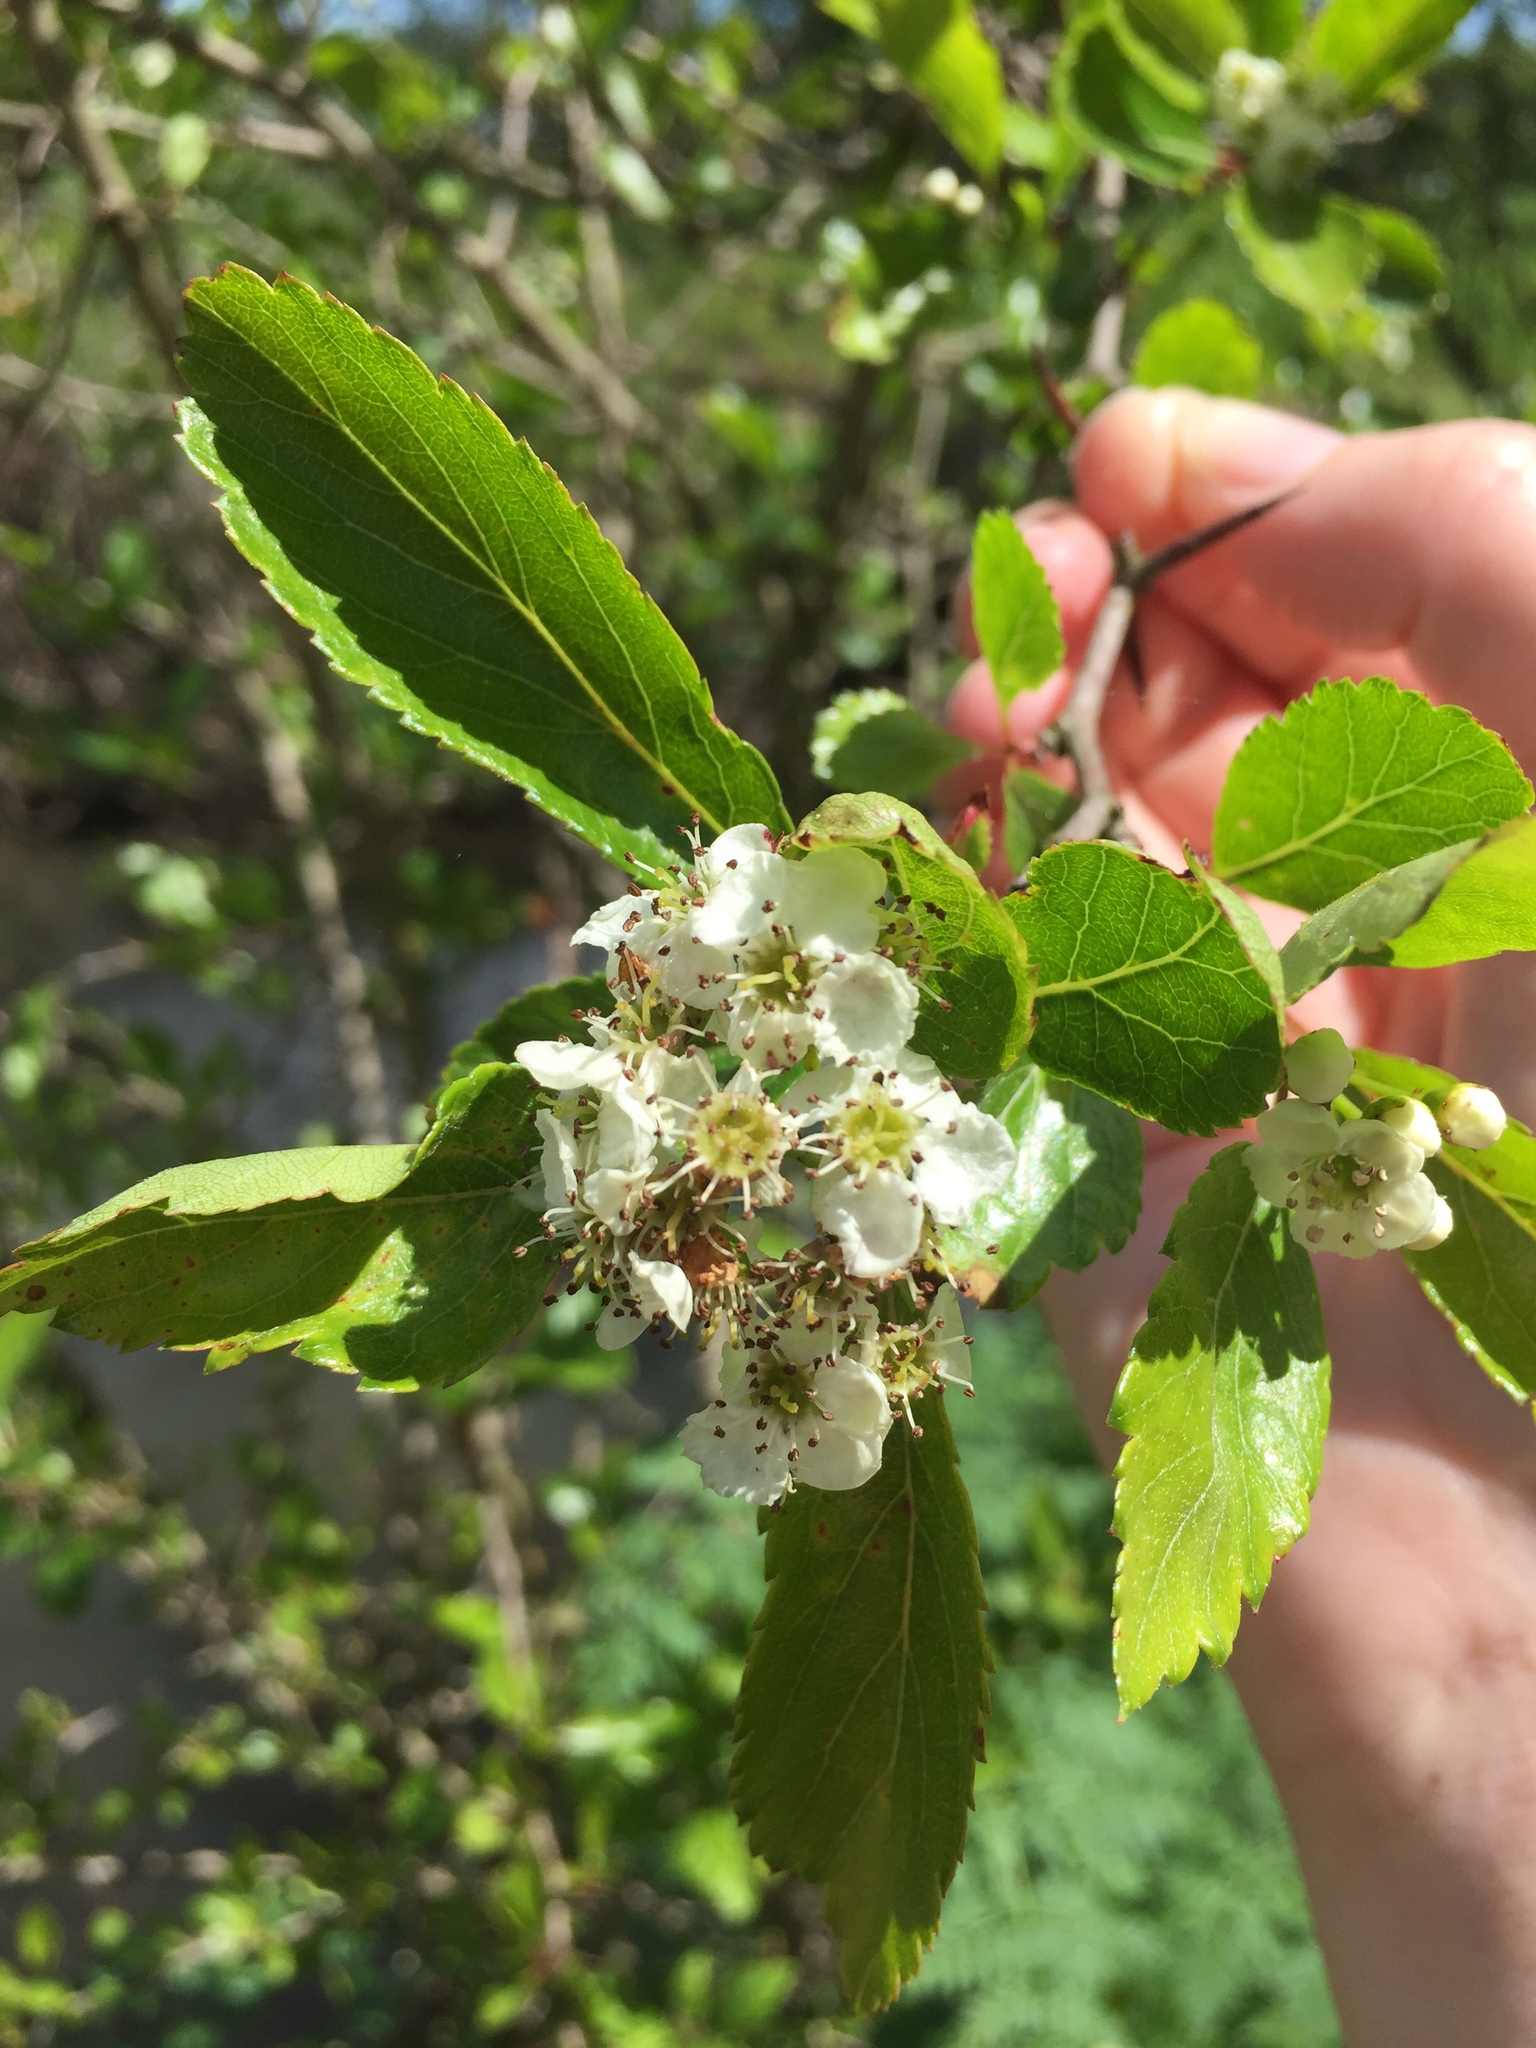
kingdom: Plantae
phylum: Tracheophyta
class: Magnoliopsida
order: Rosales
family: Rosaceae
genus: Crataegus
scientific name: Crataegus douglasii
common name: Black hawthorn
